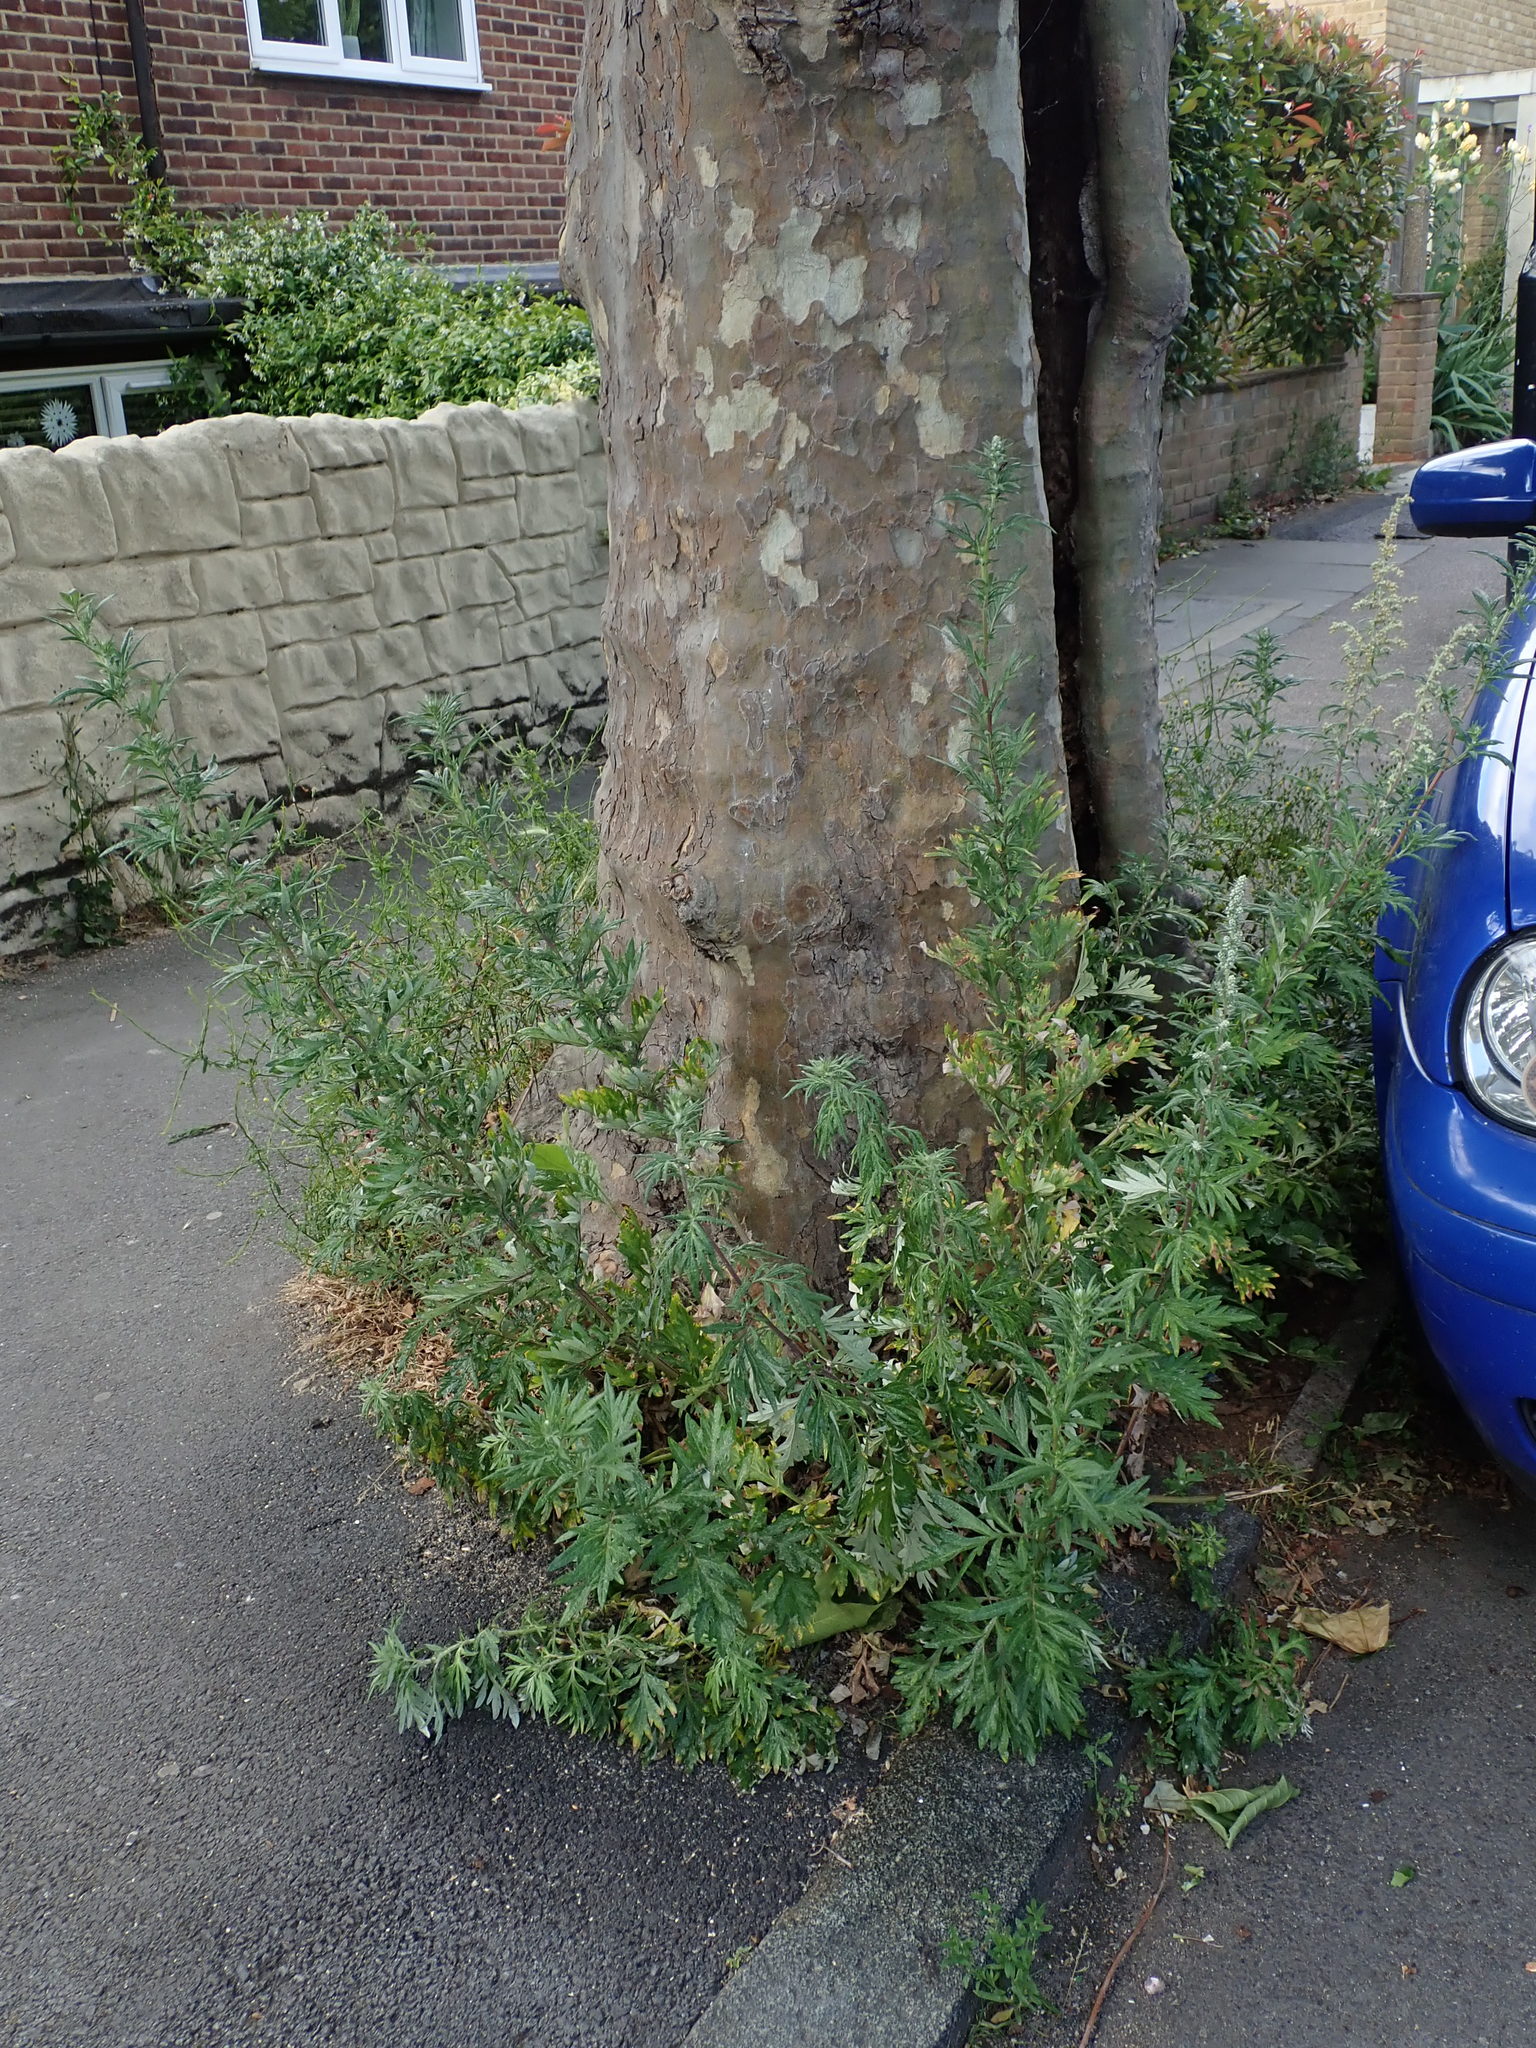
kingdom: Plantae
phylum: Tracheophyta
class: Magnoliopsida
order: Asterales
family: Asteraceae
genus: Artemisia
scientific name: Artemisia vulgaris
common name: Mugwort
